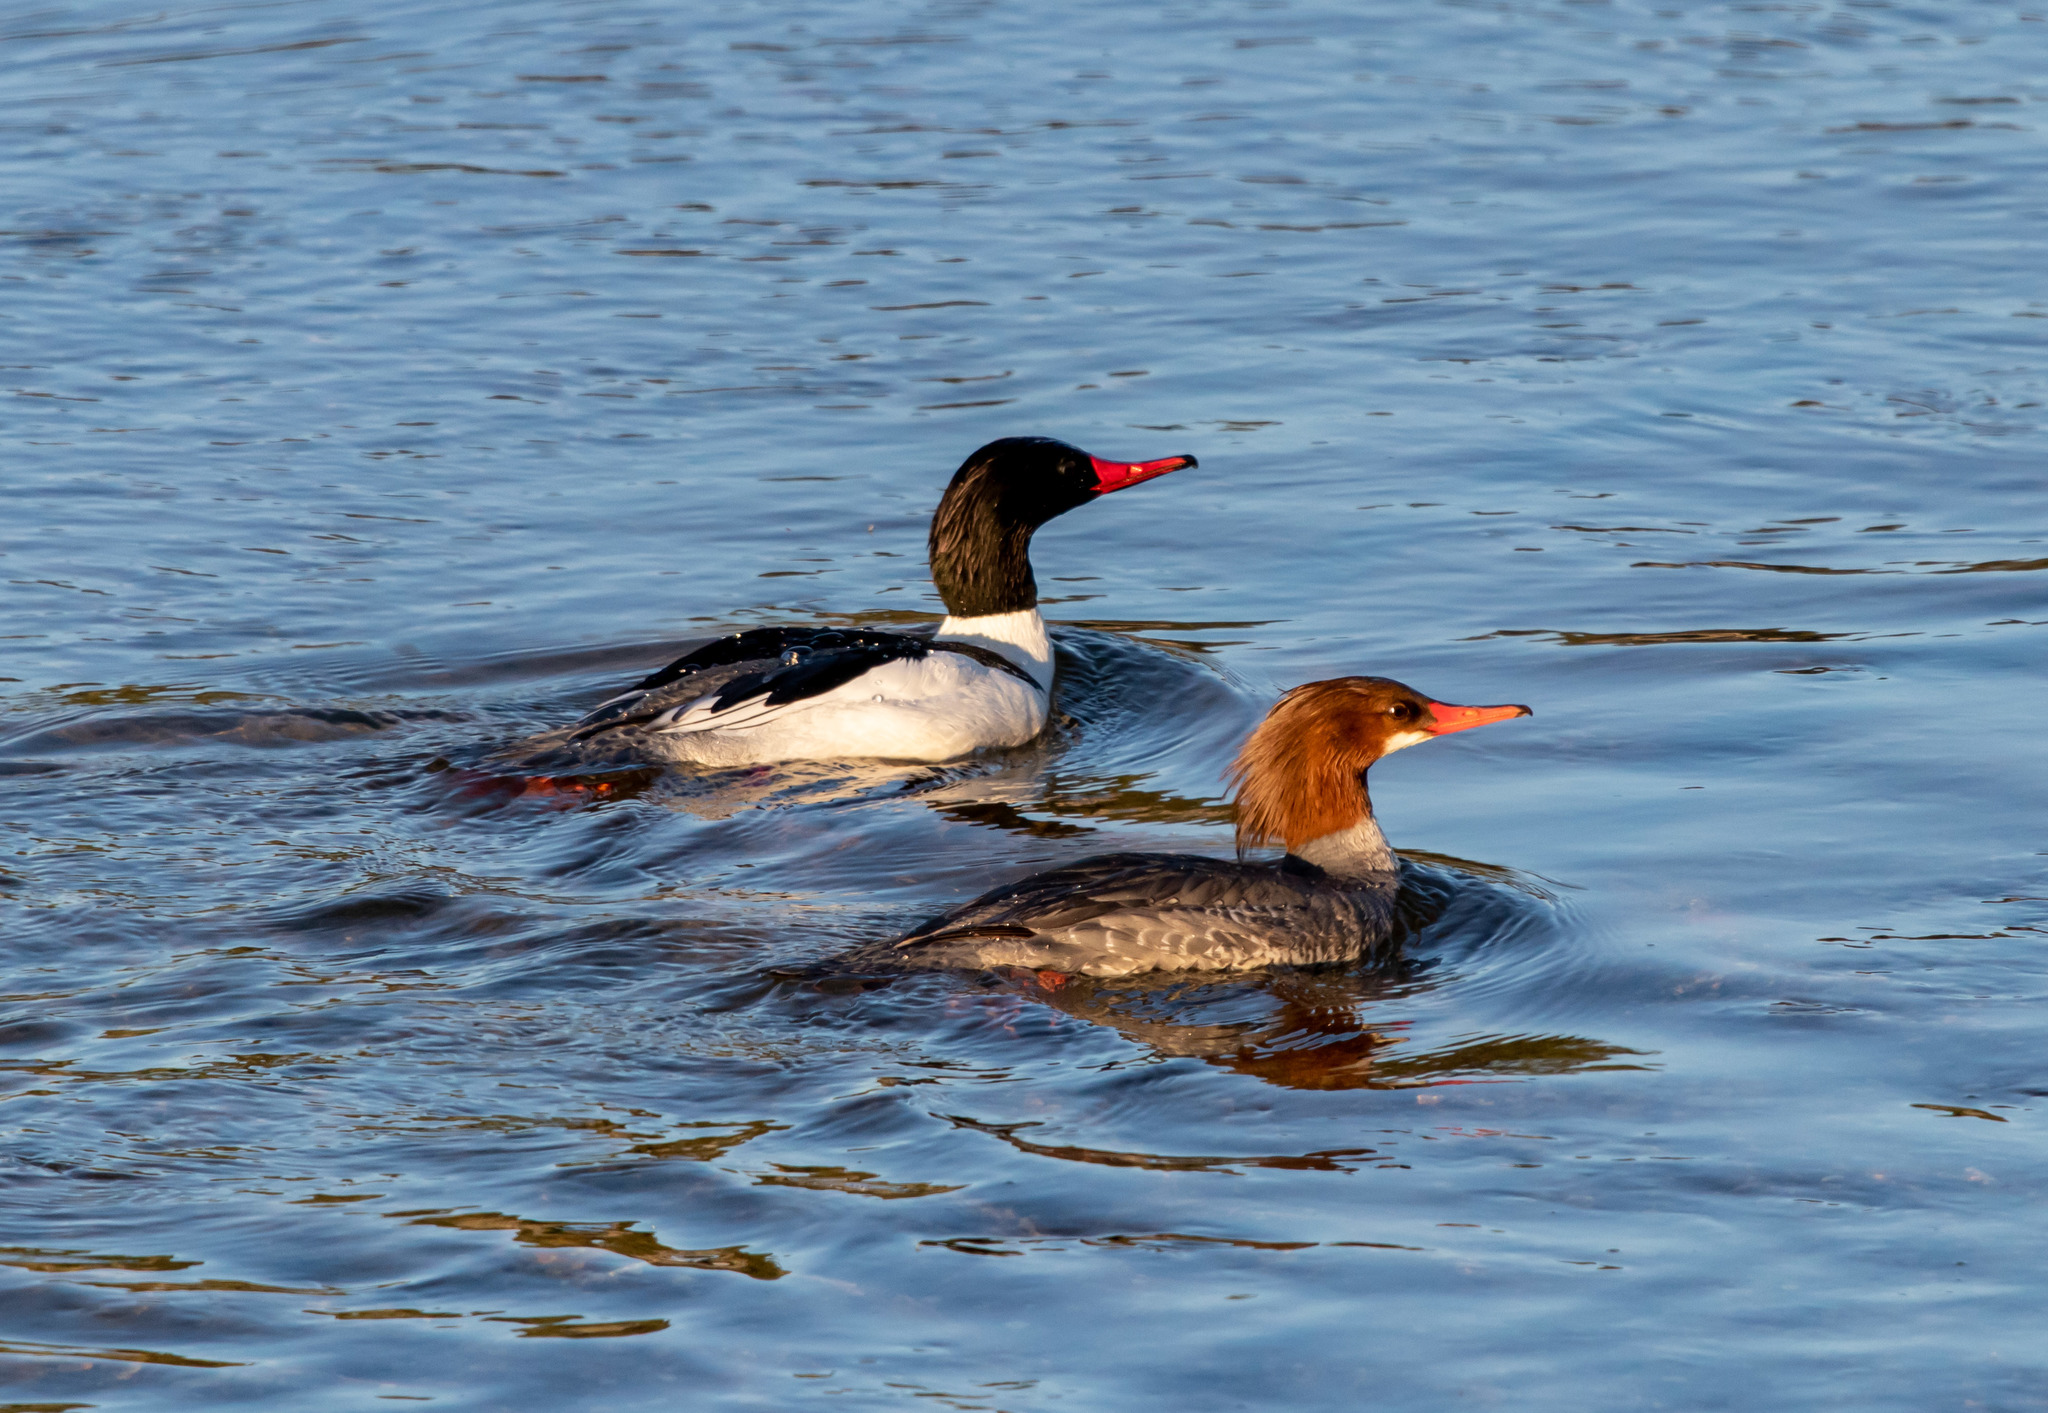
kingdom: Animalia
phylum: Chordata
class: Aves
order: Anseriformes
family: Anatidae
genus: Mergus
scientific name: Mergus merganser
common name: Common merganser
